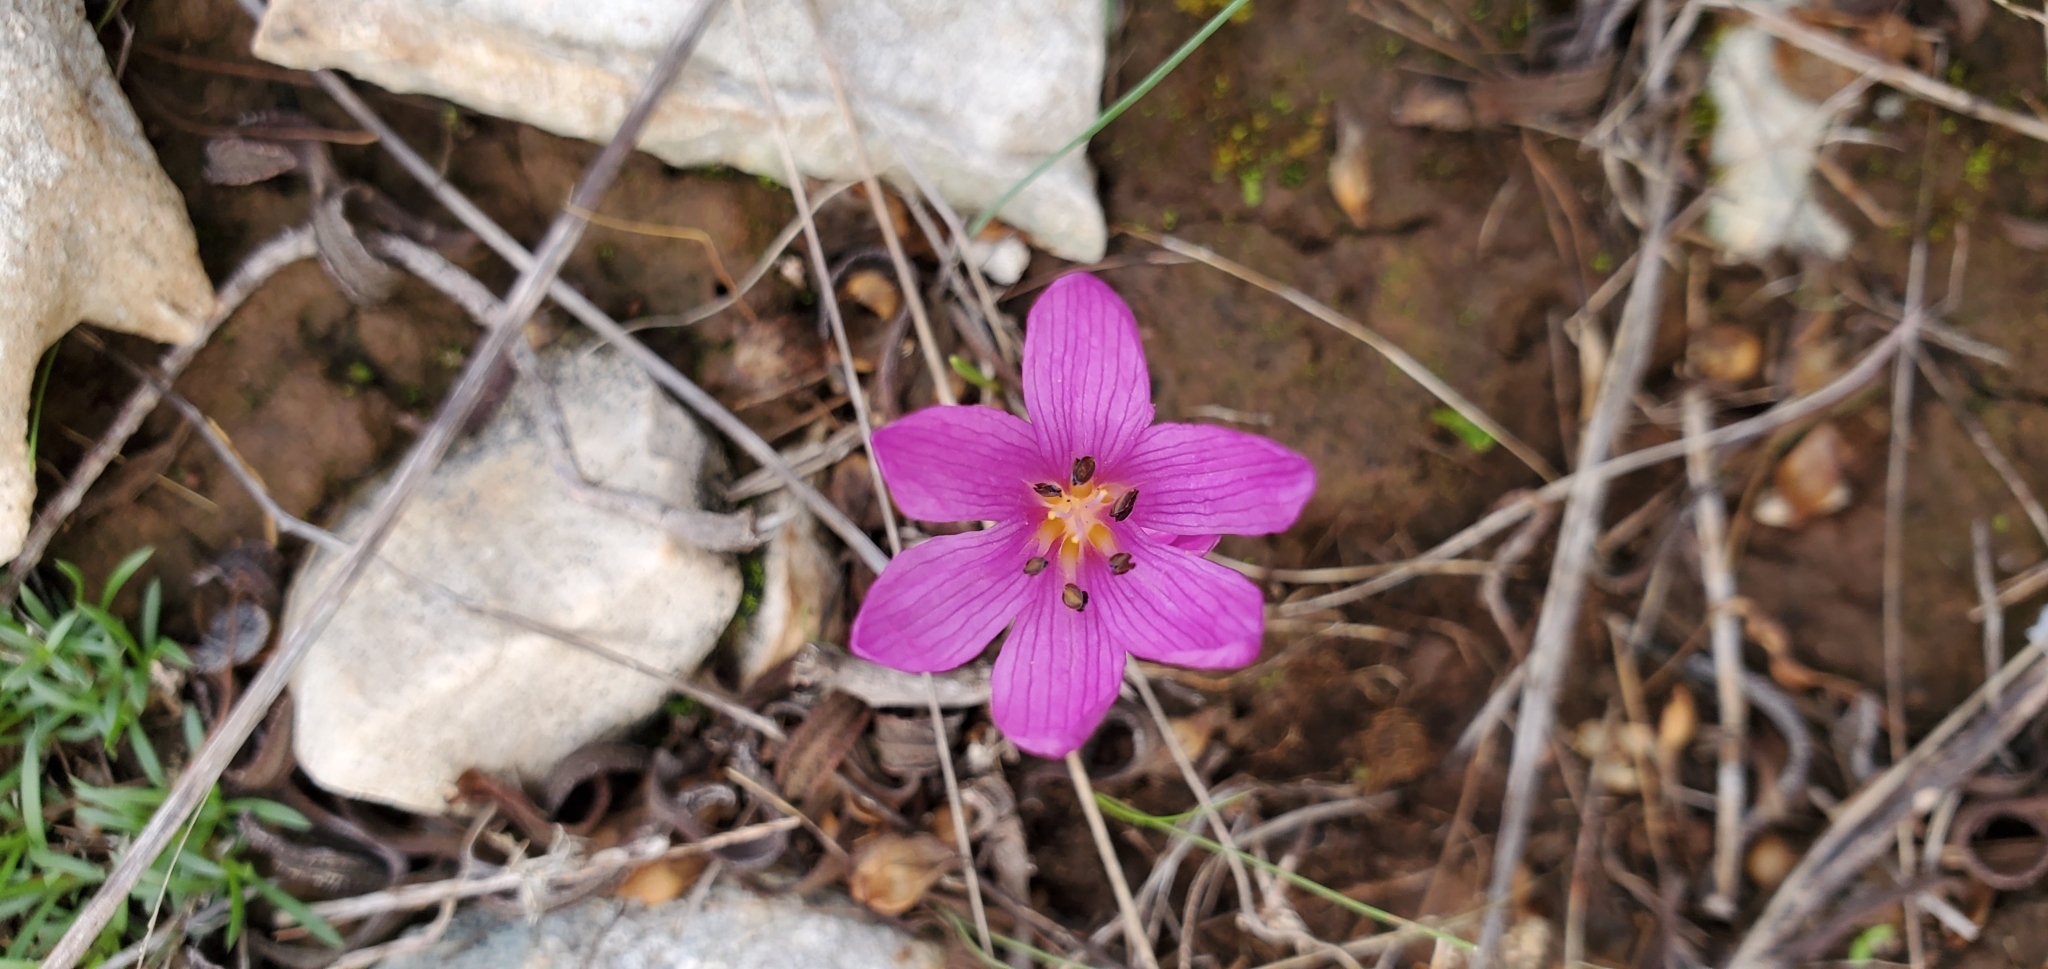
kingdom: Plantae
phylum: Tracheophyta
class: Liliopsida
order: Liliales
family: Colchicaceae
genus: Colchicum
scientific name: Colchicum cupanii
